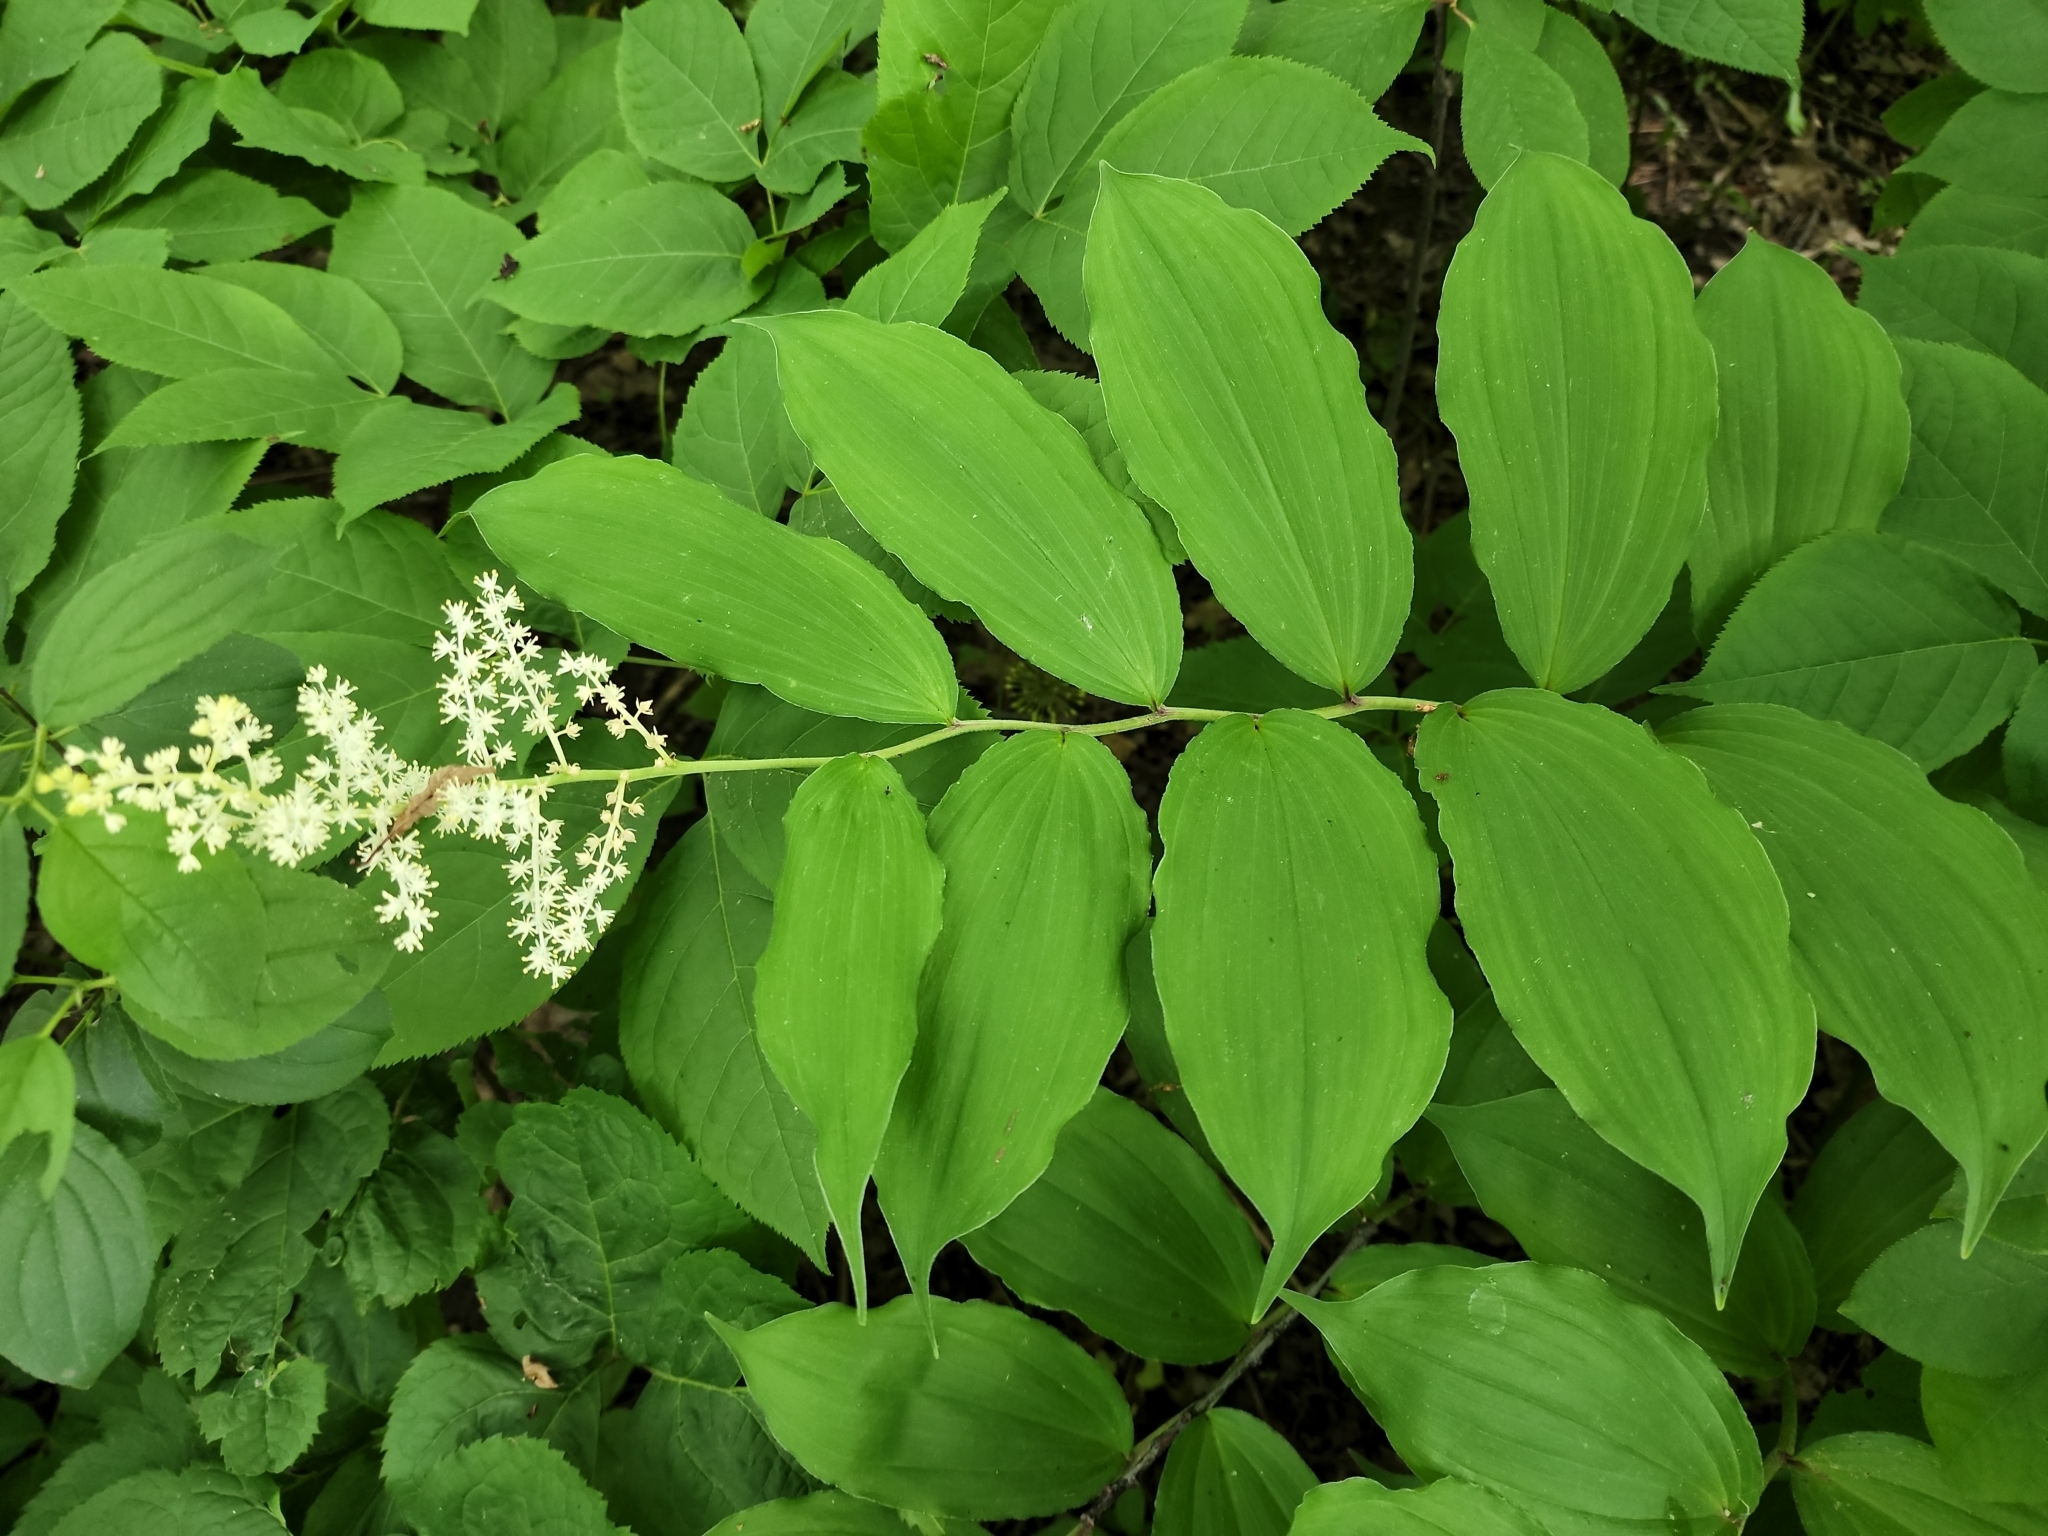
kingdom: Plantae
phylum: Tracheophyta
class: Liliopsida
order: Asparagales
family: Asparagaceae
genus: Maianthemum
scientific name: Maianthemum racemosum
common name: False spikenard
